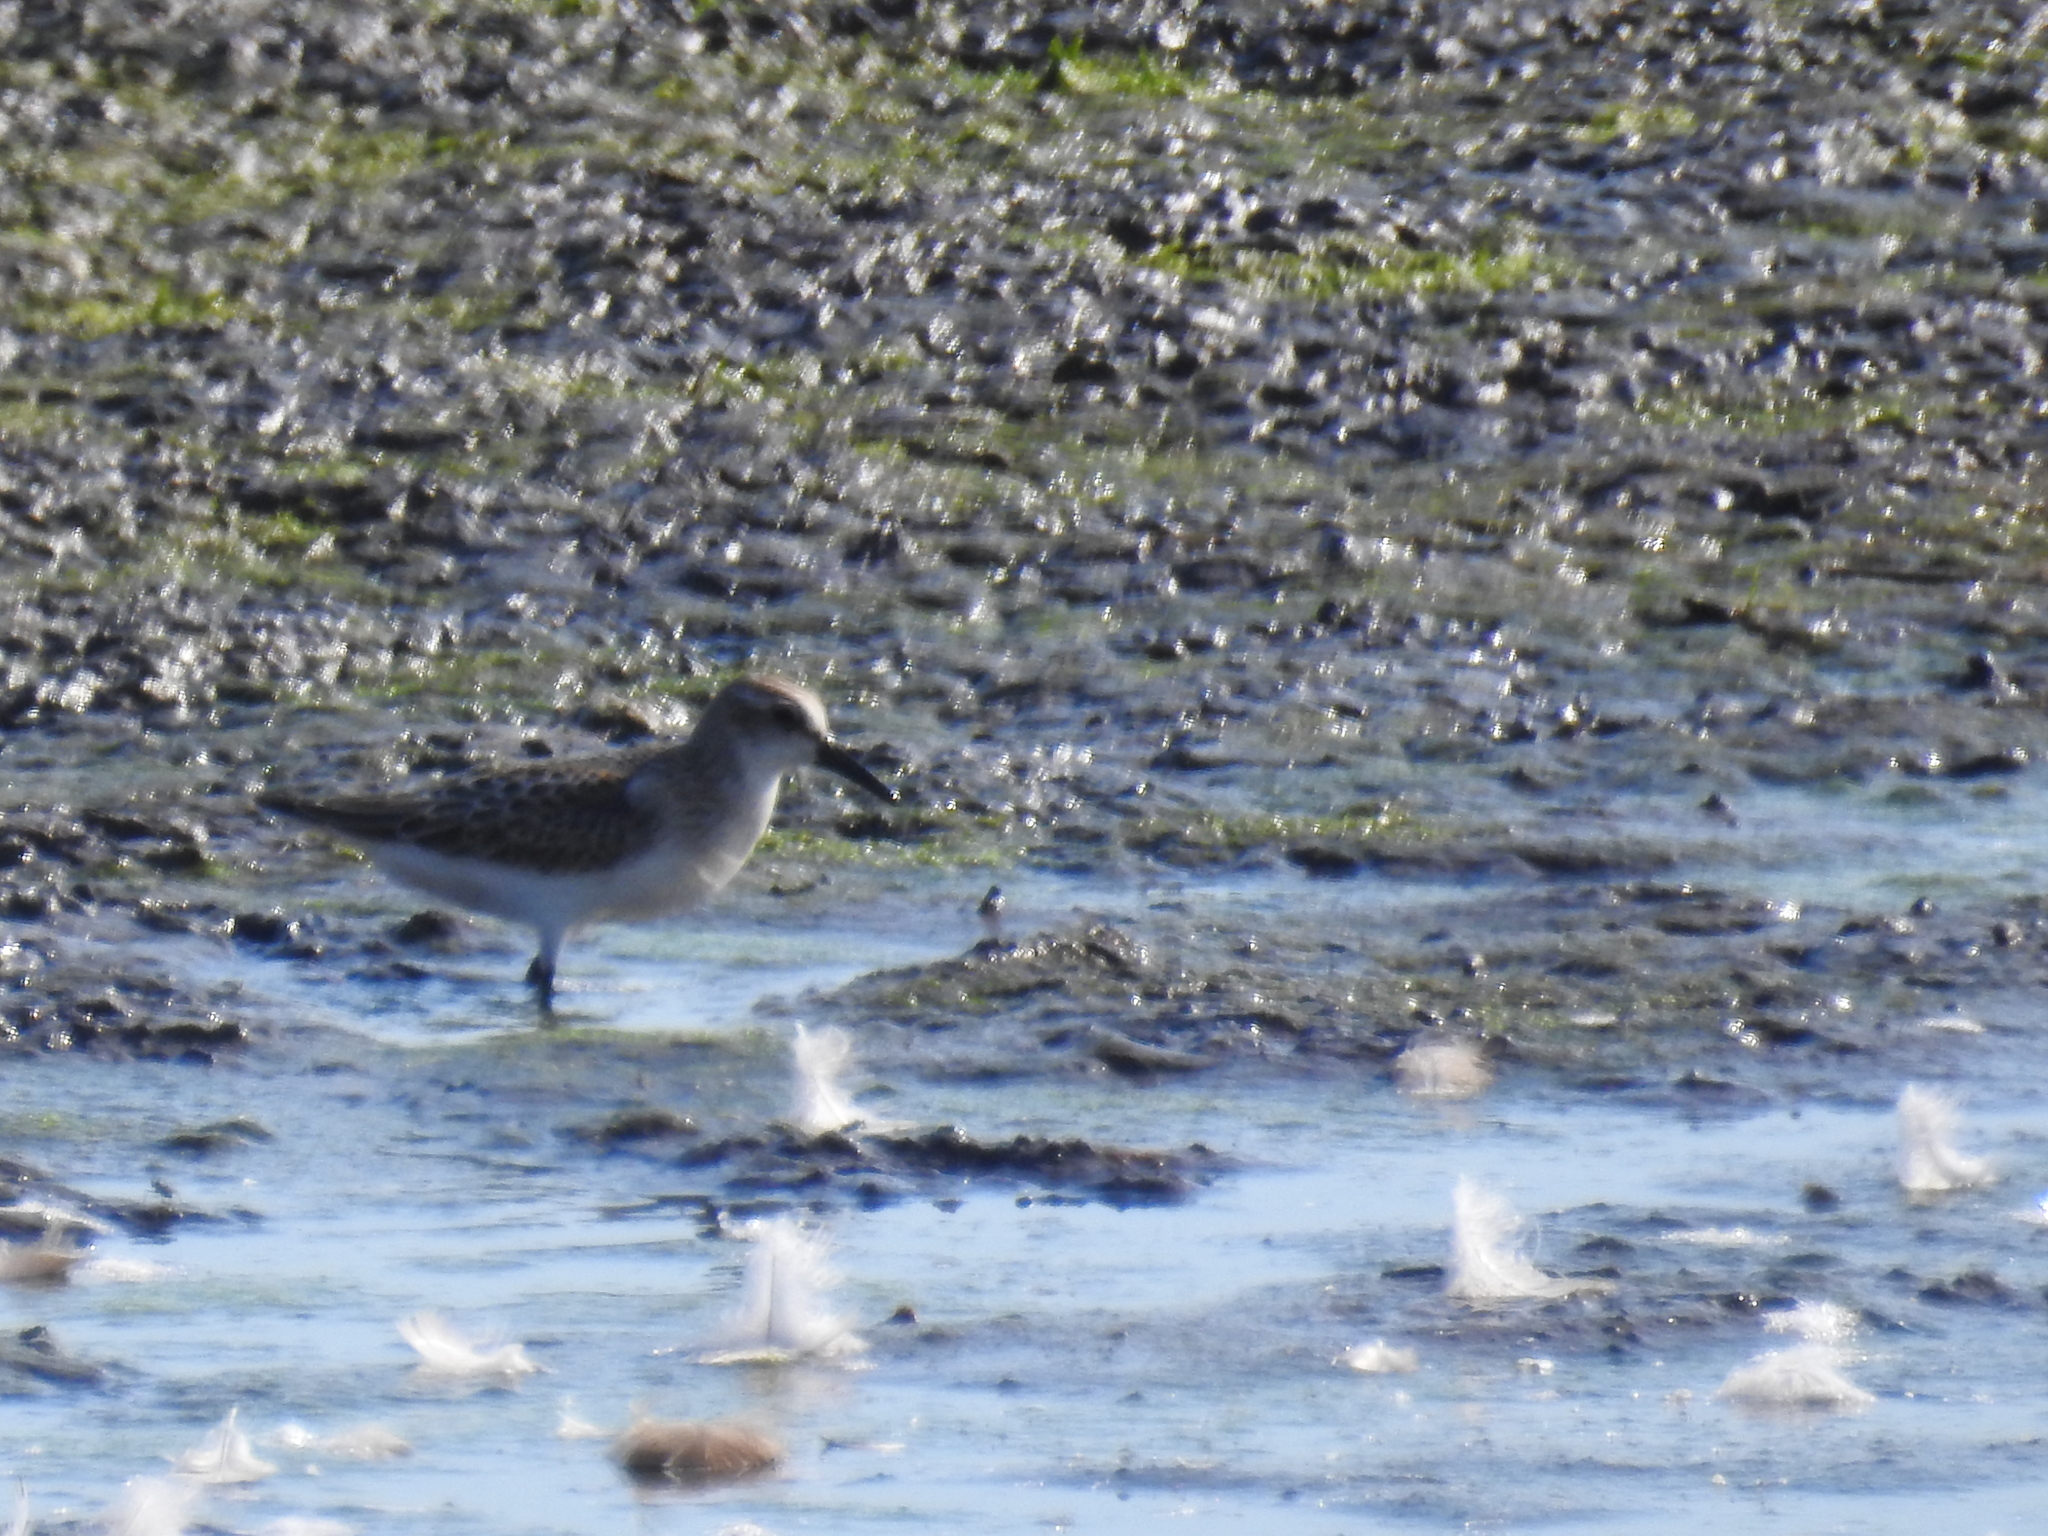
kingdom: Animalia
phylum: Chordata
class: Aves
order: Charadriiformes
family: Scolopacidae
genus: Calidris
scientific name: Calidris pusilla
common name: Semipalmated sandpiper
